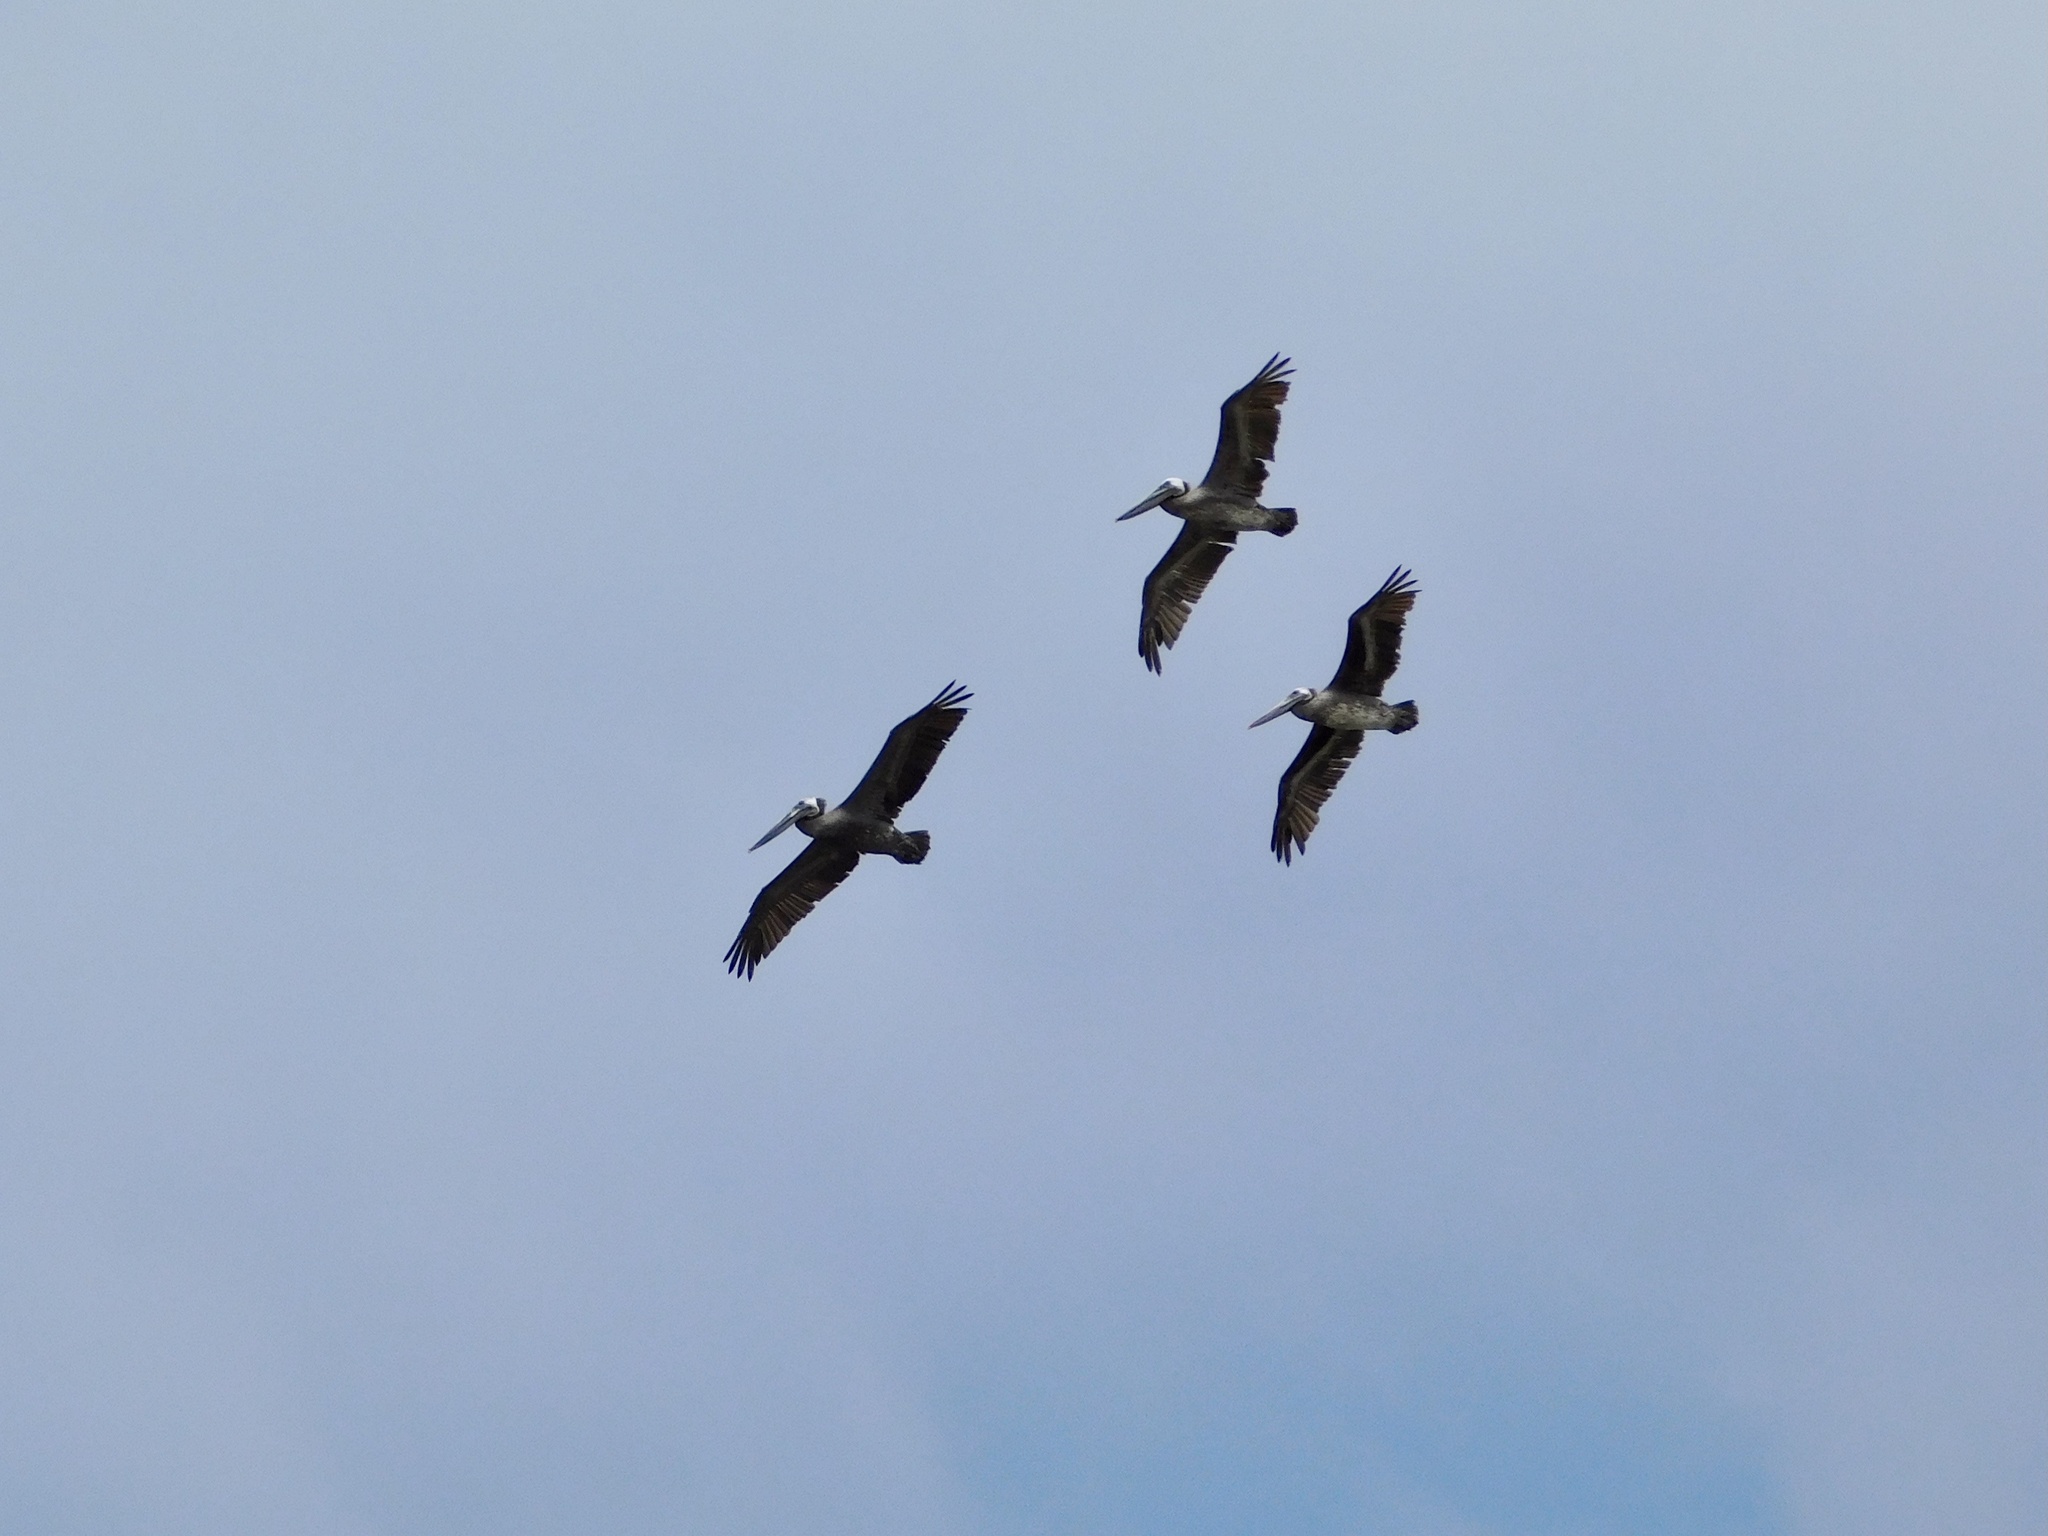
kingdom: Animalia
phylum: Chordata
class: Aves
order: Pelecaniformes
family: Pelecanidae
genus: Pelecanus
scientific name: Pelecanus occidentalis
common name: Brown pelican
